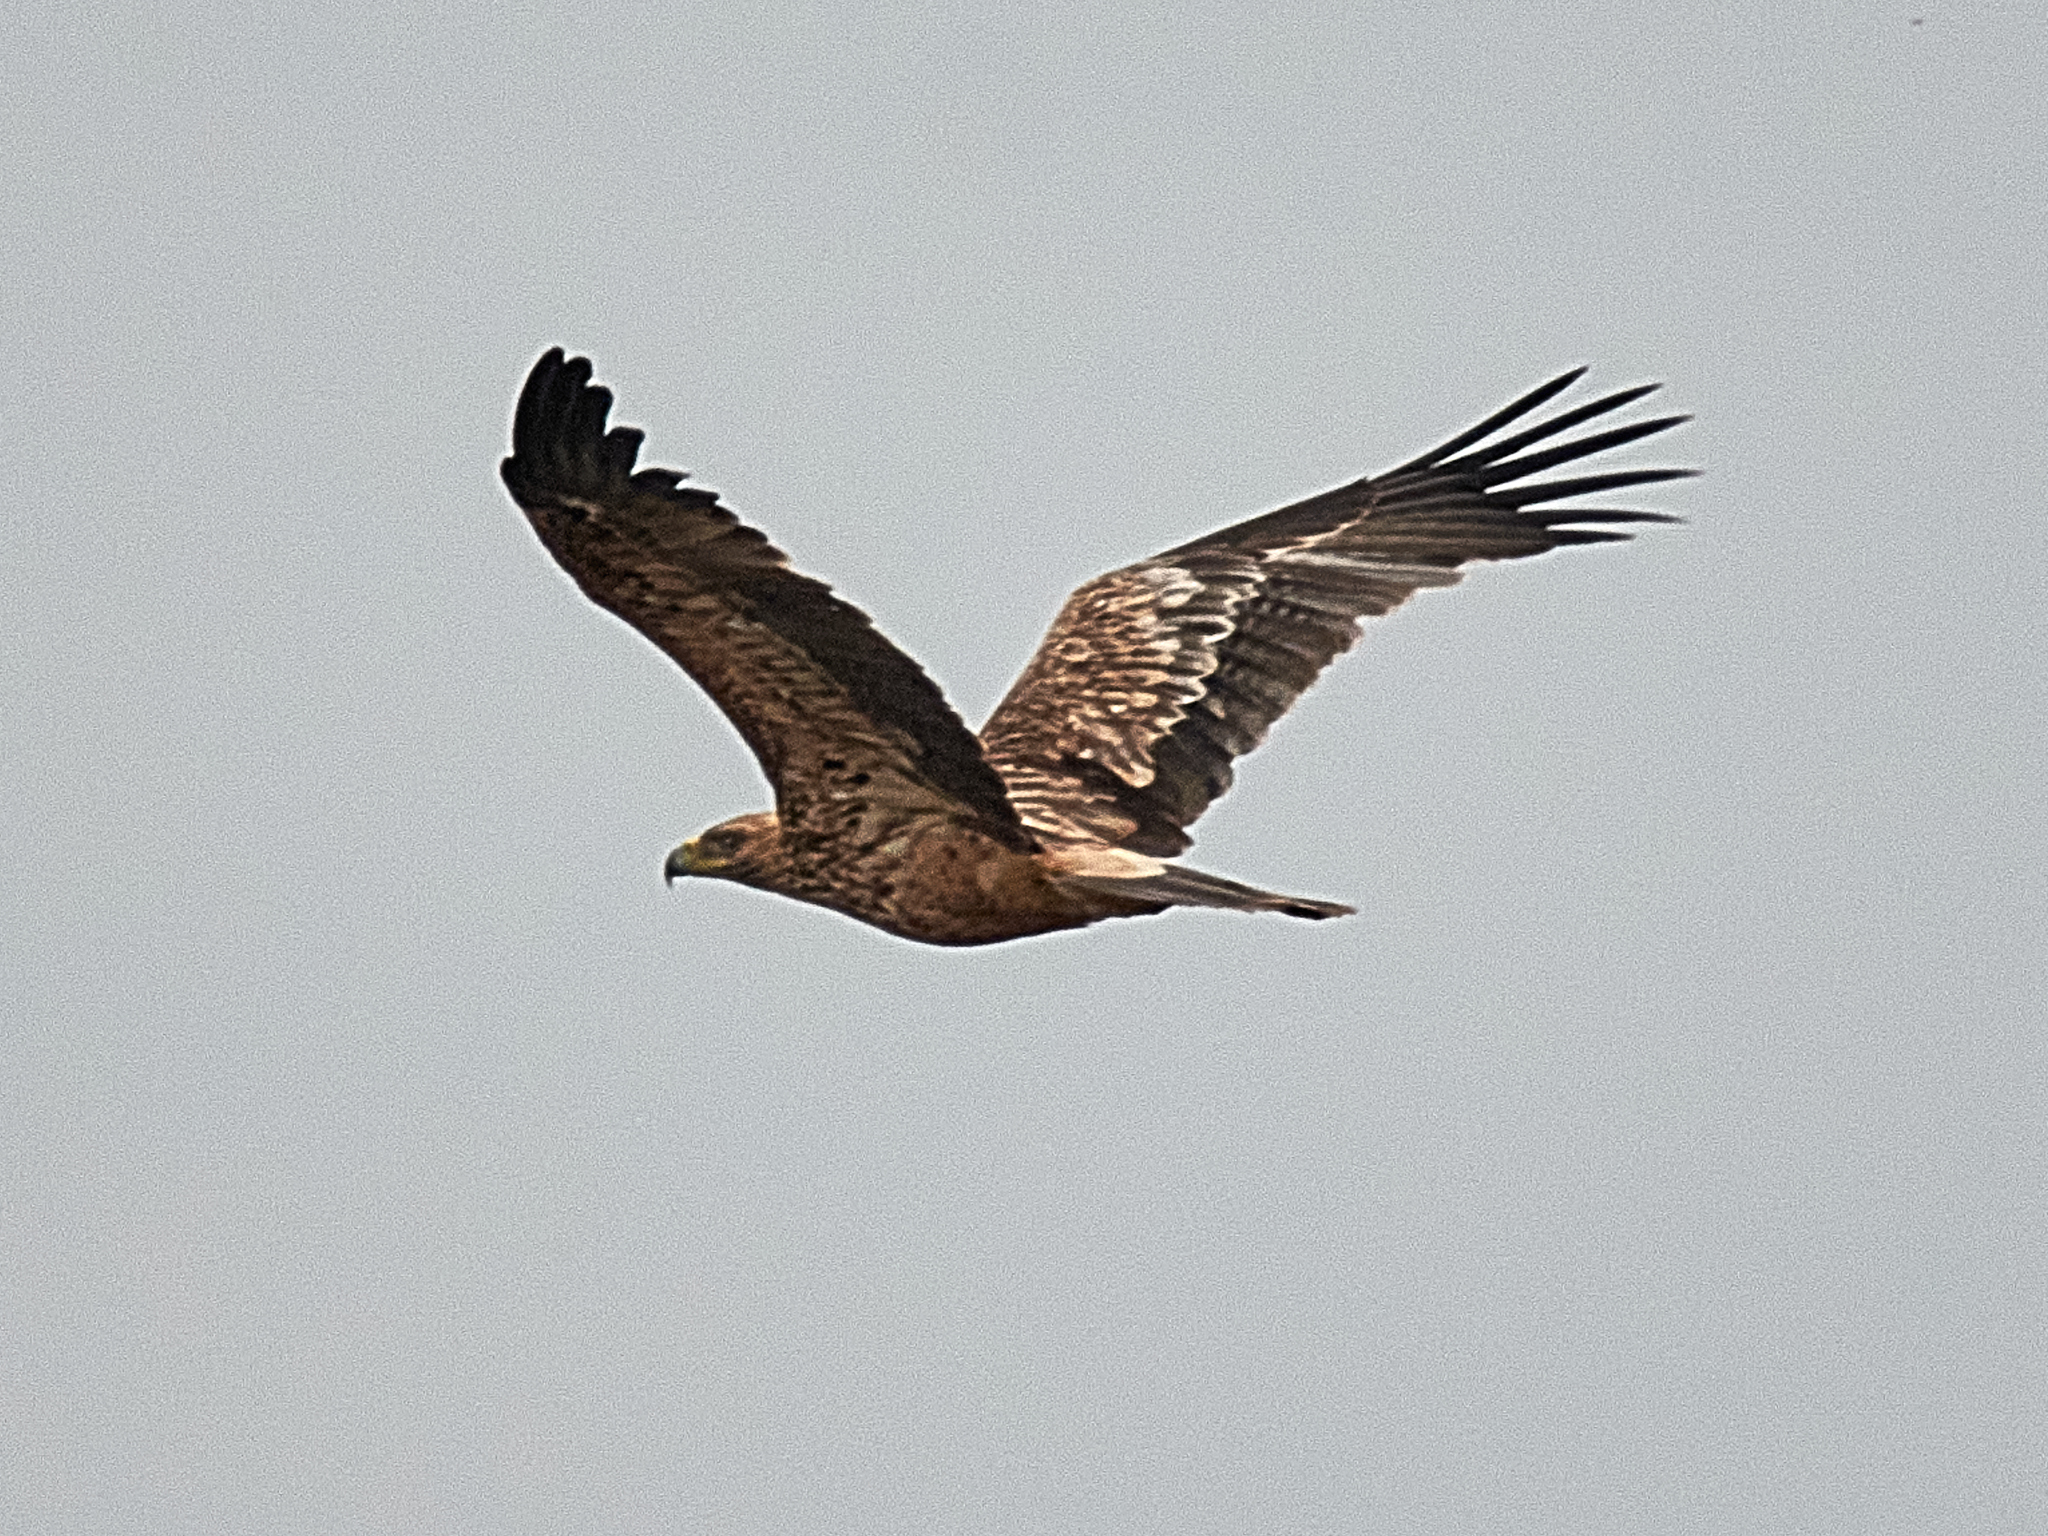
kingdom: Animalia
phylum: Chordata
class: Aves
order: Accipitriformes
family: Accipitridae
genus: Aquila
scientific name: Aquila heliaca
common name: Eastern imperial eagle
